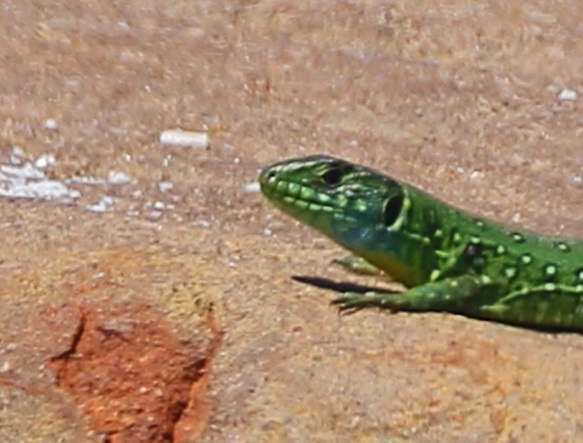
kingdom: Animalia
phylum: Chordata
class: Squamata
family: Lacertidae
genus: Timon
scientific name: Timon pater
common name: North african ocellated lizard
